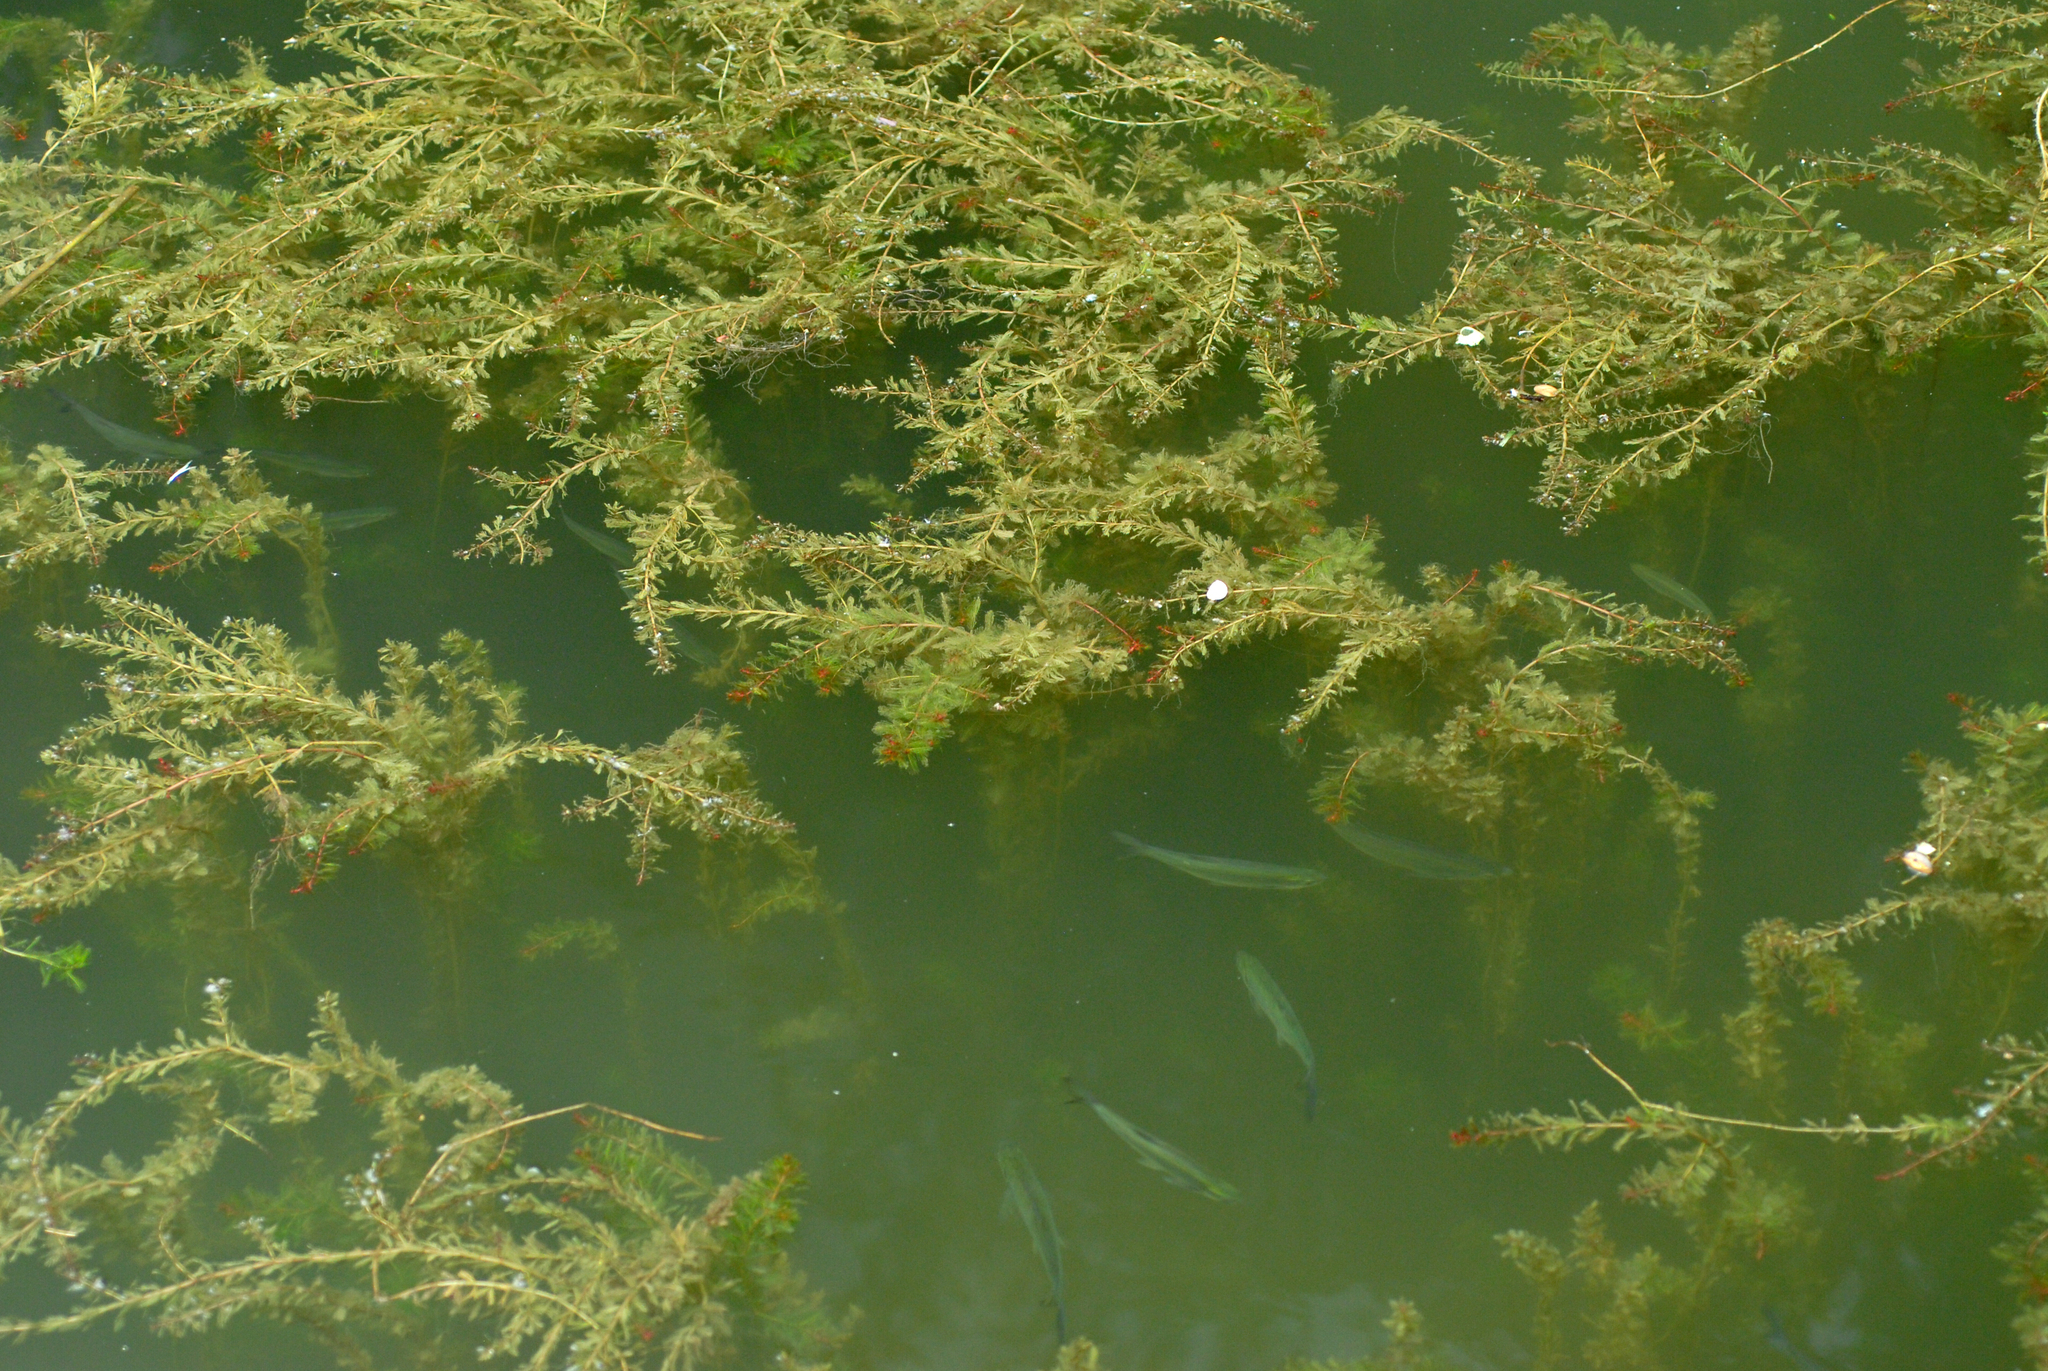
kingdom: Animalia
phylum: Chordata
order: Cypriniformes
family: Cyprinidae
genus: Hemiculter
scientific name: Hemiculter leucisculus
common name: Common sawbelly
